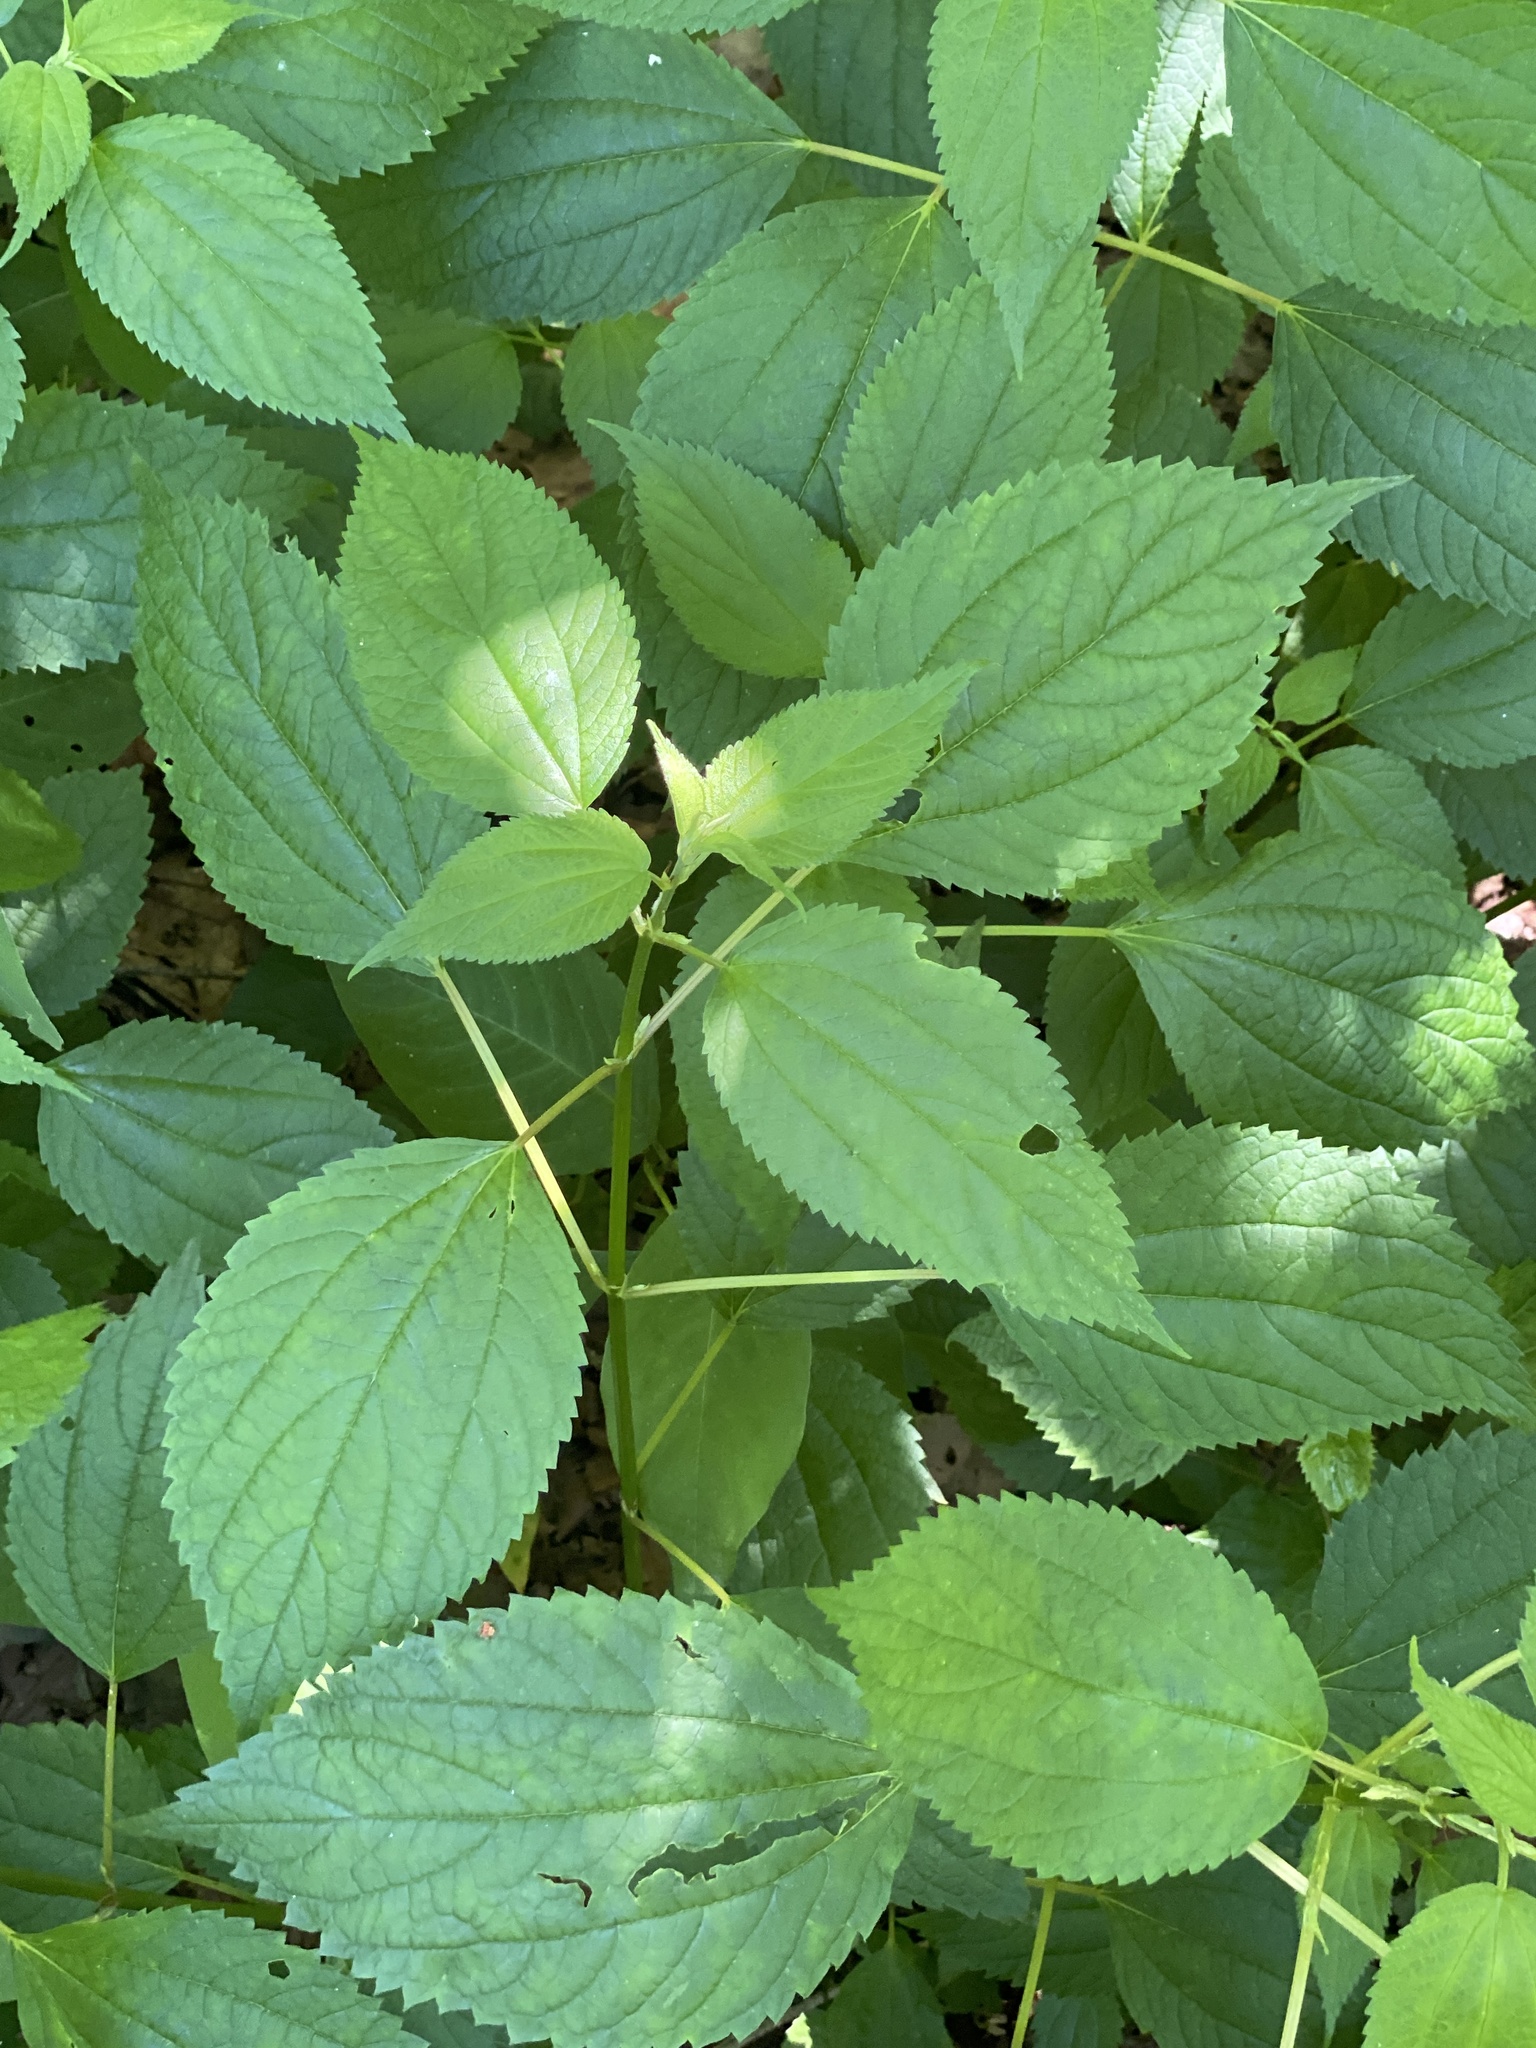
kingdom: Plantae
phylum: Tracheophyta
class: Magnoliopsida
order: Rosales
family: Urticaceae
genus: Boehmeria
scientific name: Boehmeria cylindrica
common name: Bog-hemp
